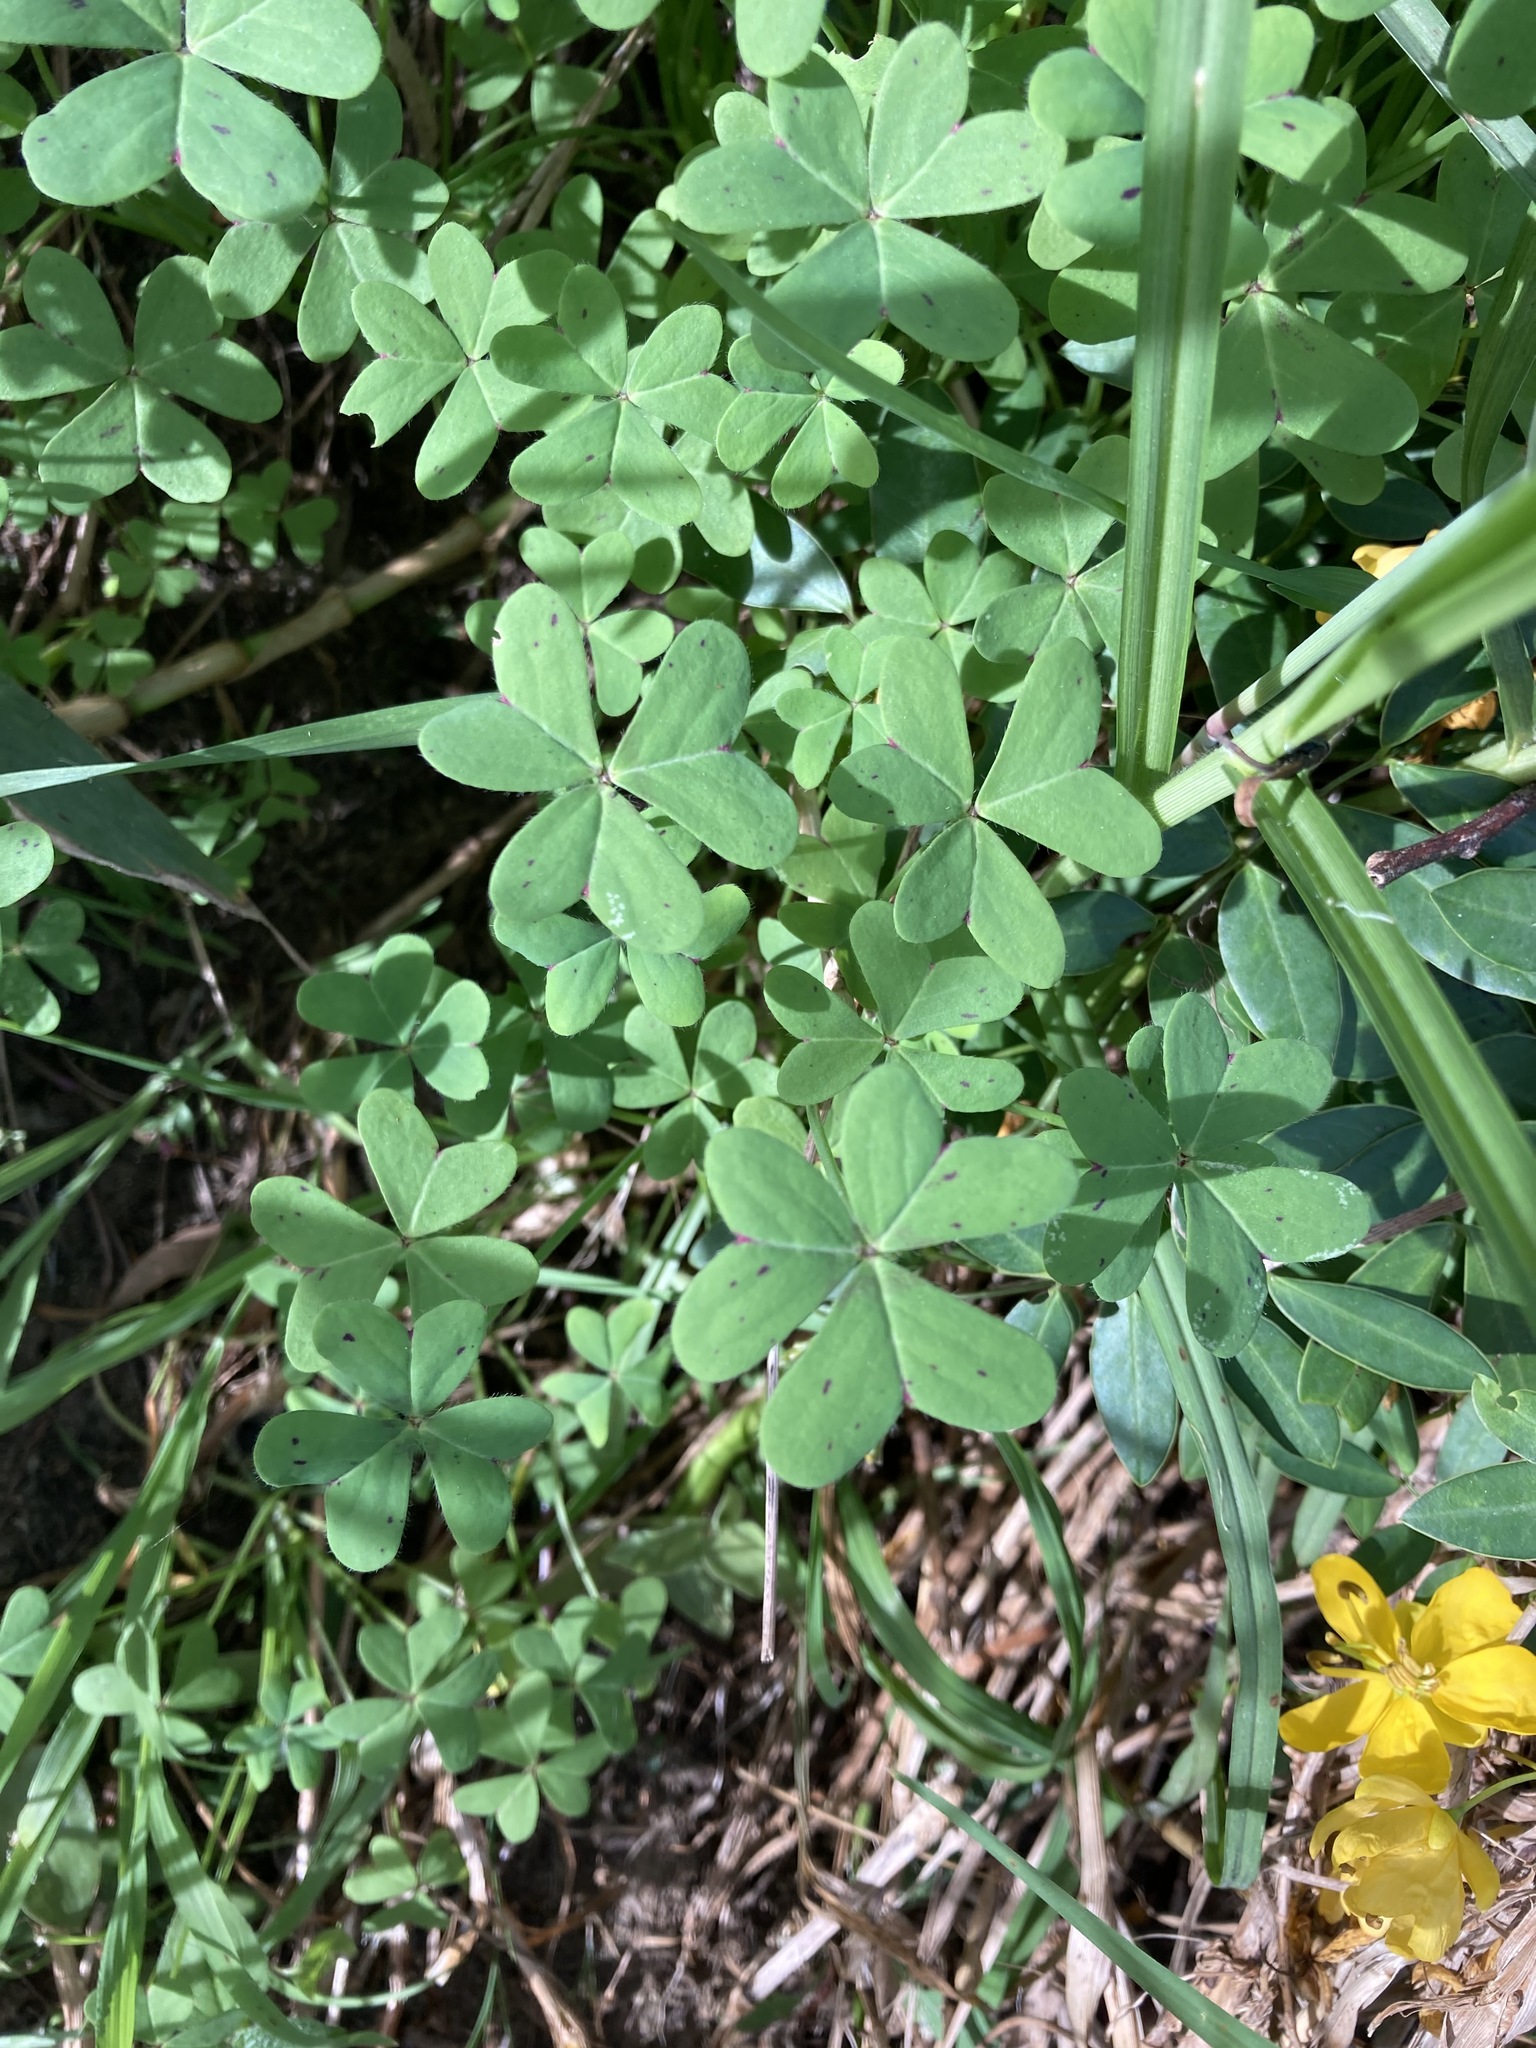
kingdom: Plantae
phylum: Tracheophyta
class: Magnoliopsida
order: Oxalidales
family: Oxalidaceae
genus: Oxalis
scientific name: Oxalis pes-caprae
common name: Bermuda-buttercup
